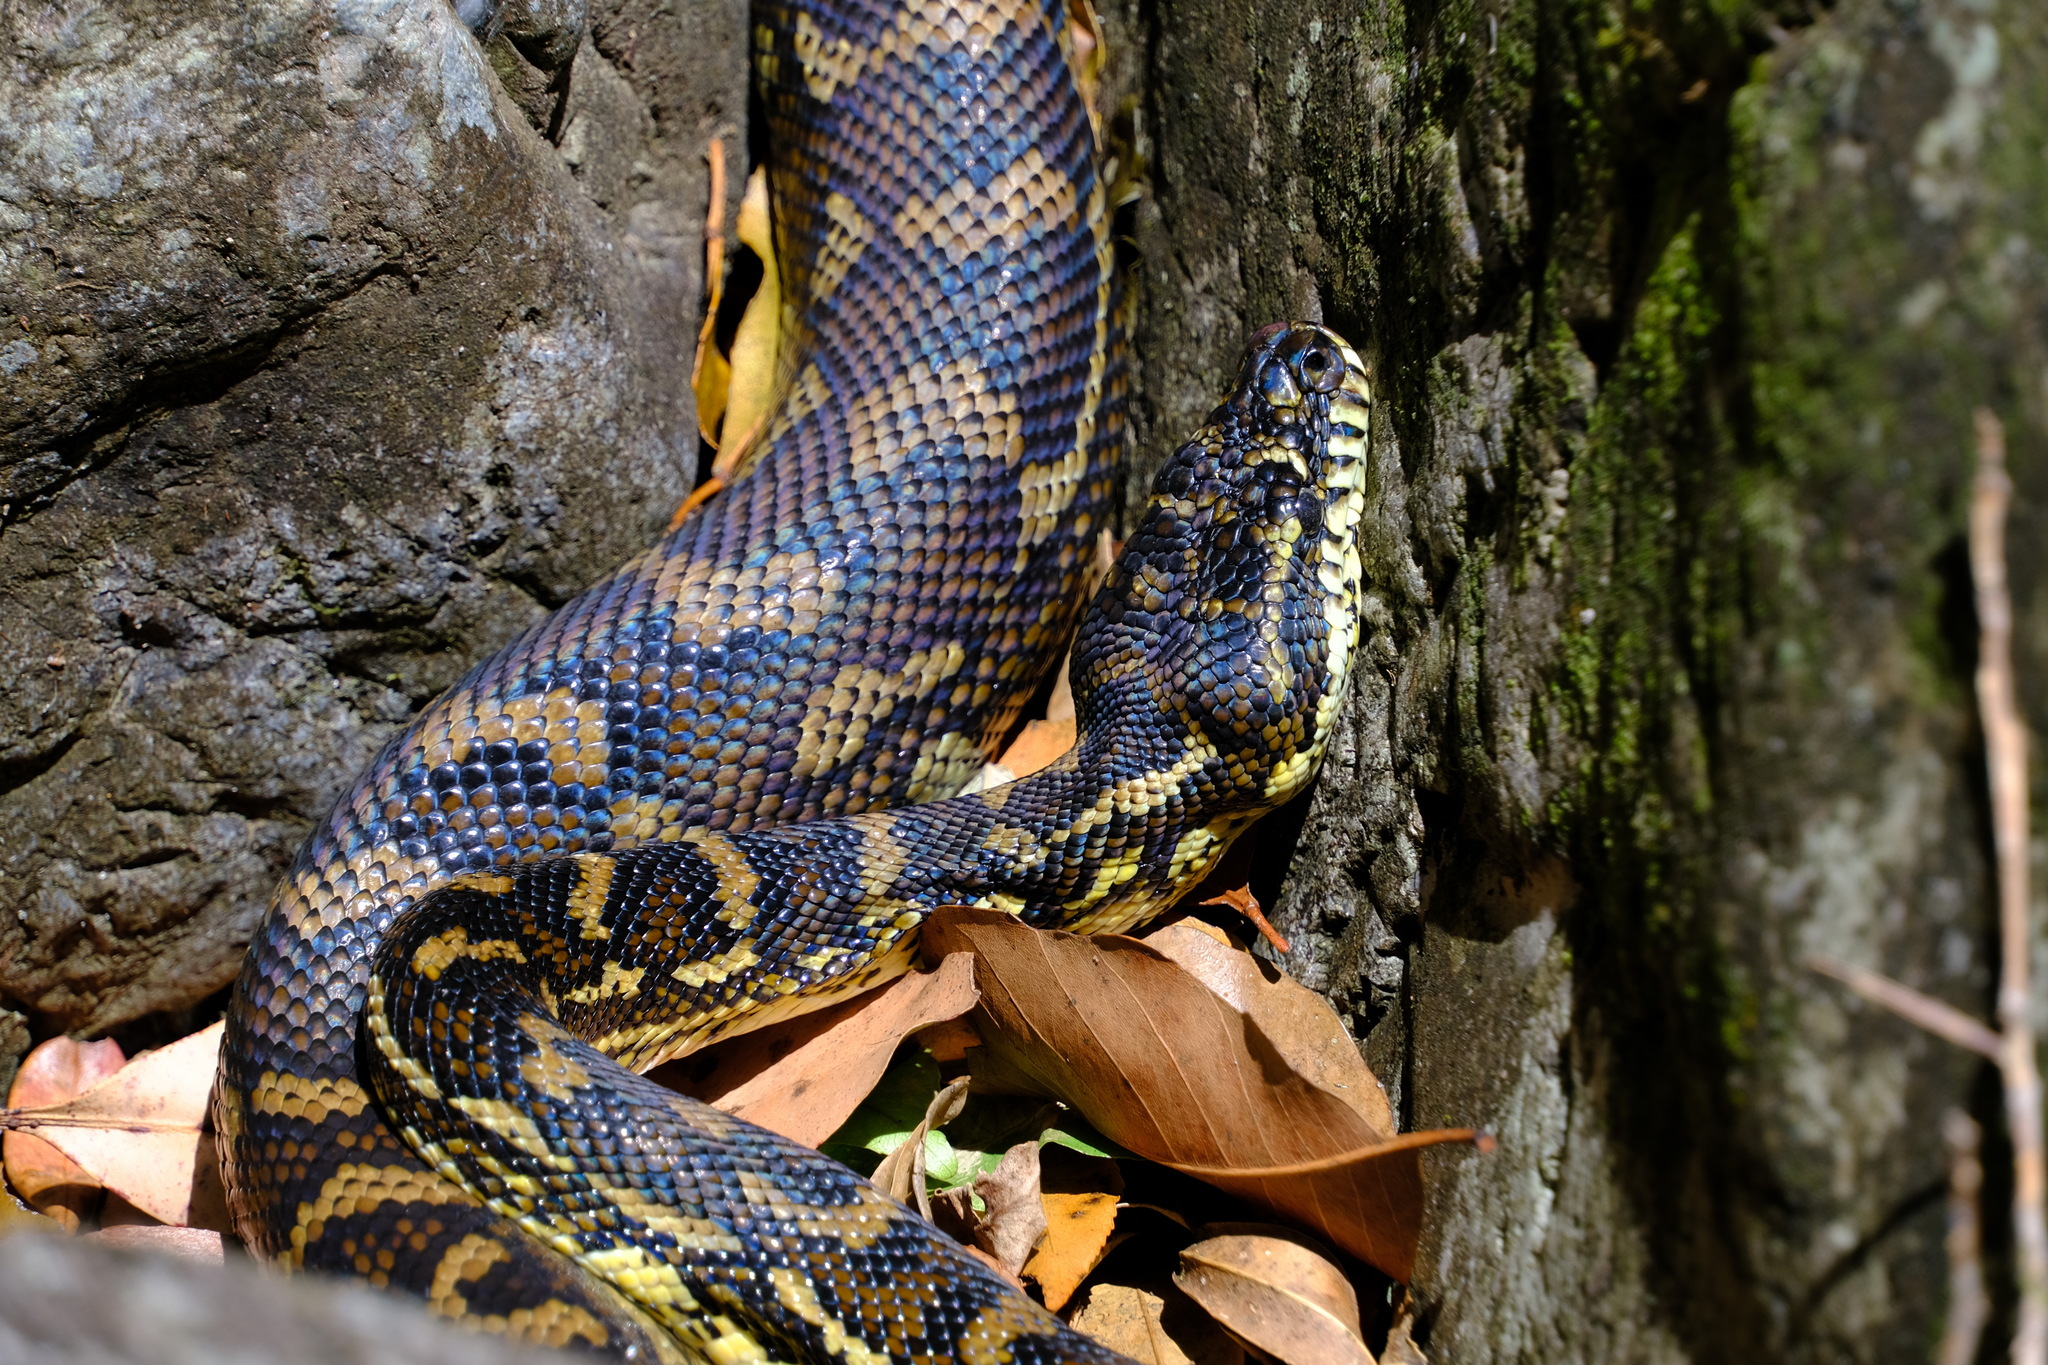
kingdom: Animalia
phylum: Chordata
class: Squamata
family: Pythonidae
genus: Morelia
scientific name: Morelia spilota
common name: Carpet python
